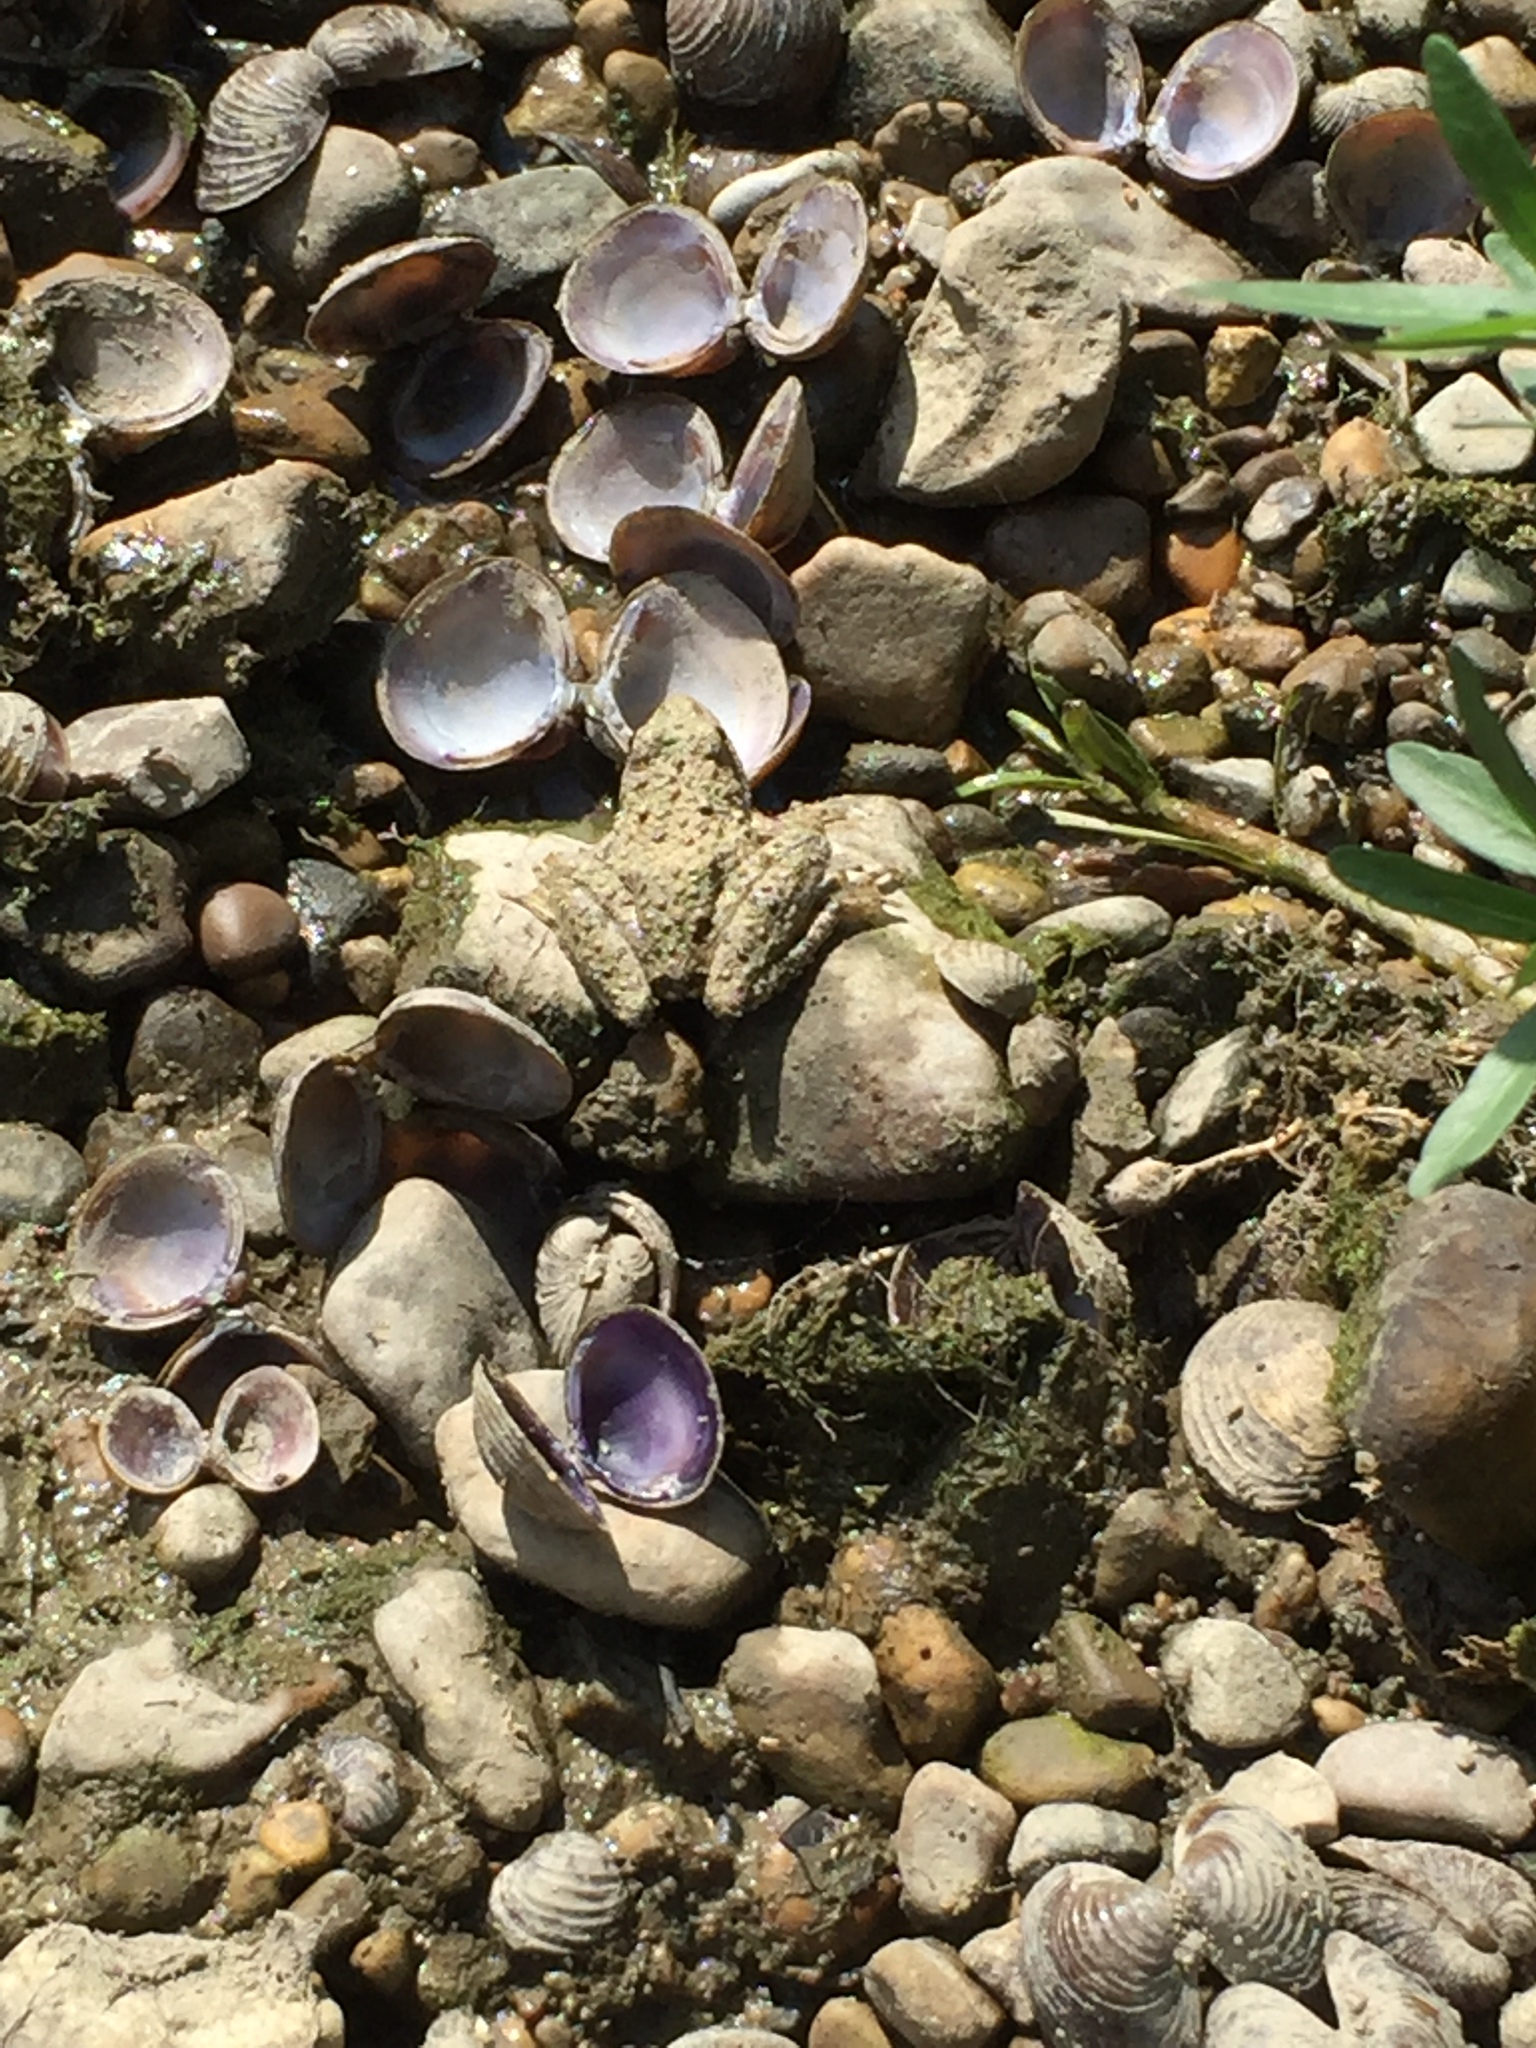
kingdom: Animalia
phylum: Chordata
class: Amphibia
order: Anura
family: Hylidae
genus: Acris
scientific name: Acris blanchardi
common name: Blanchard's cricket frog
